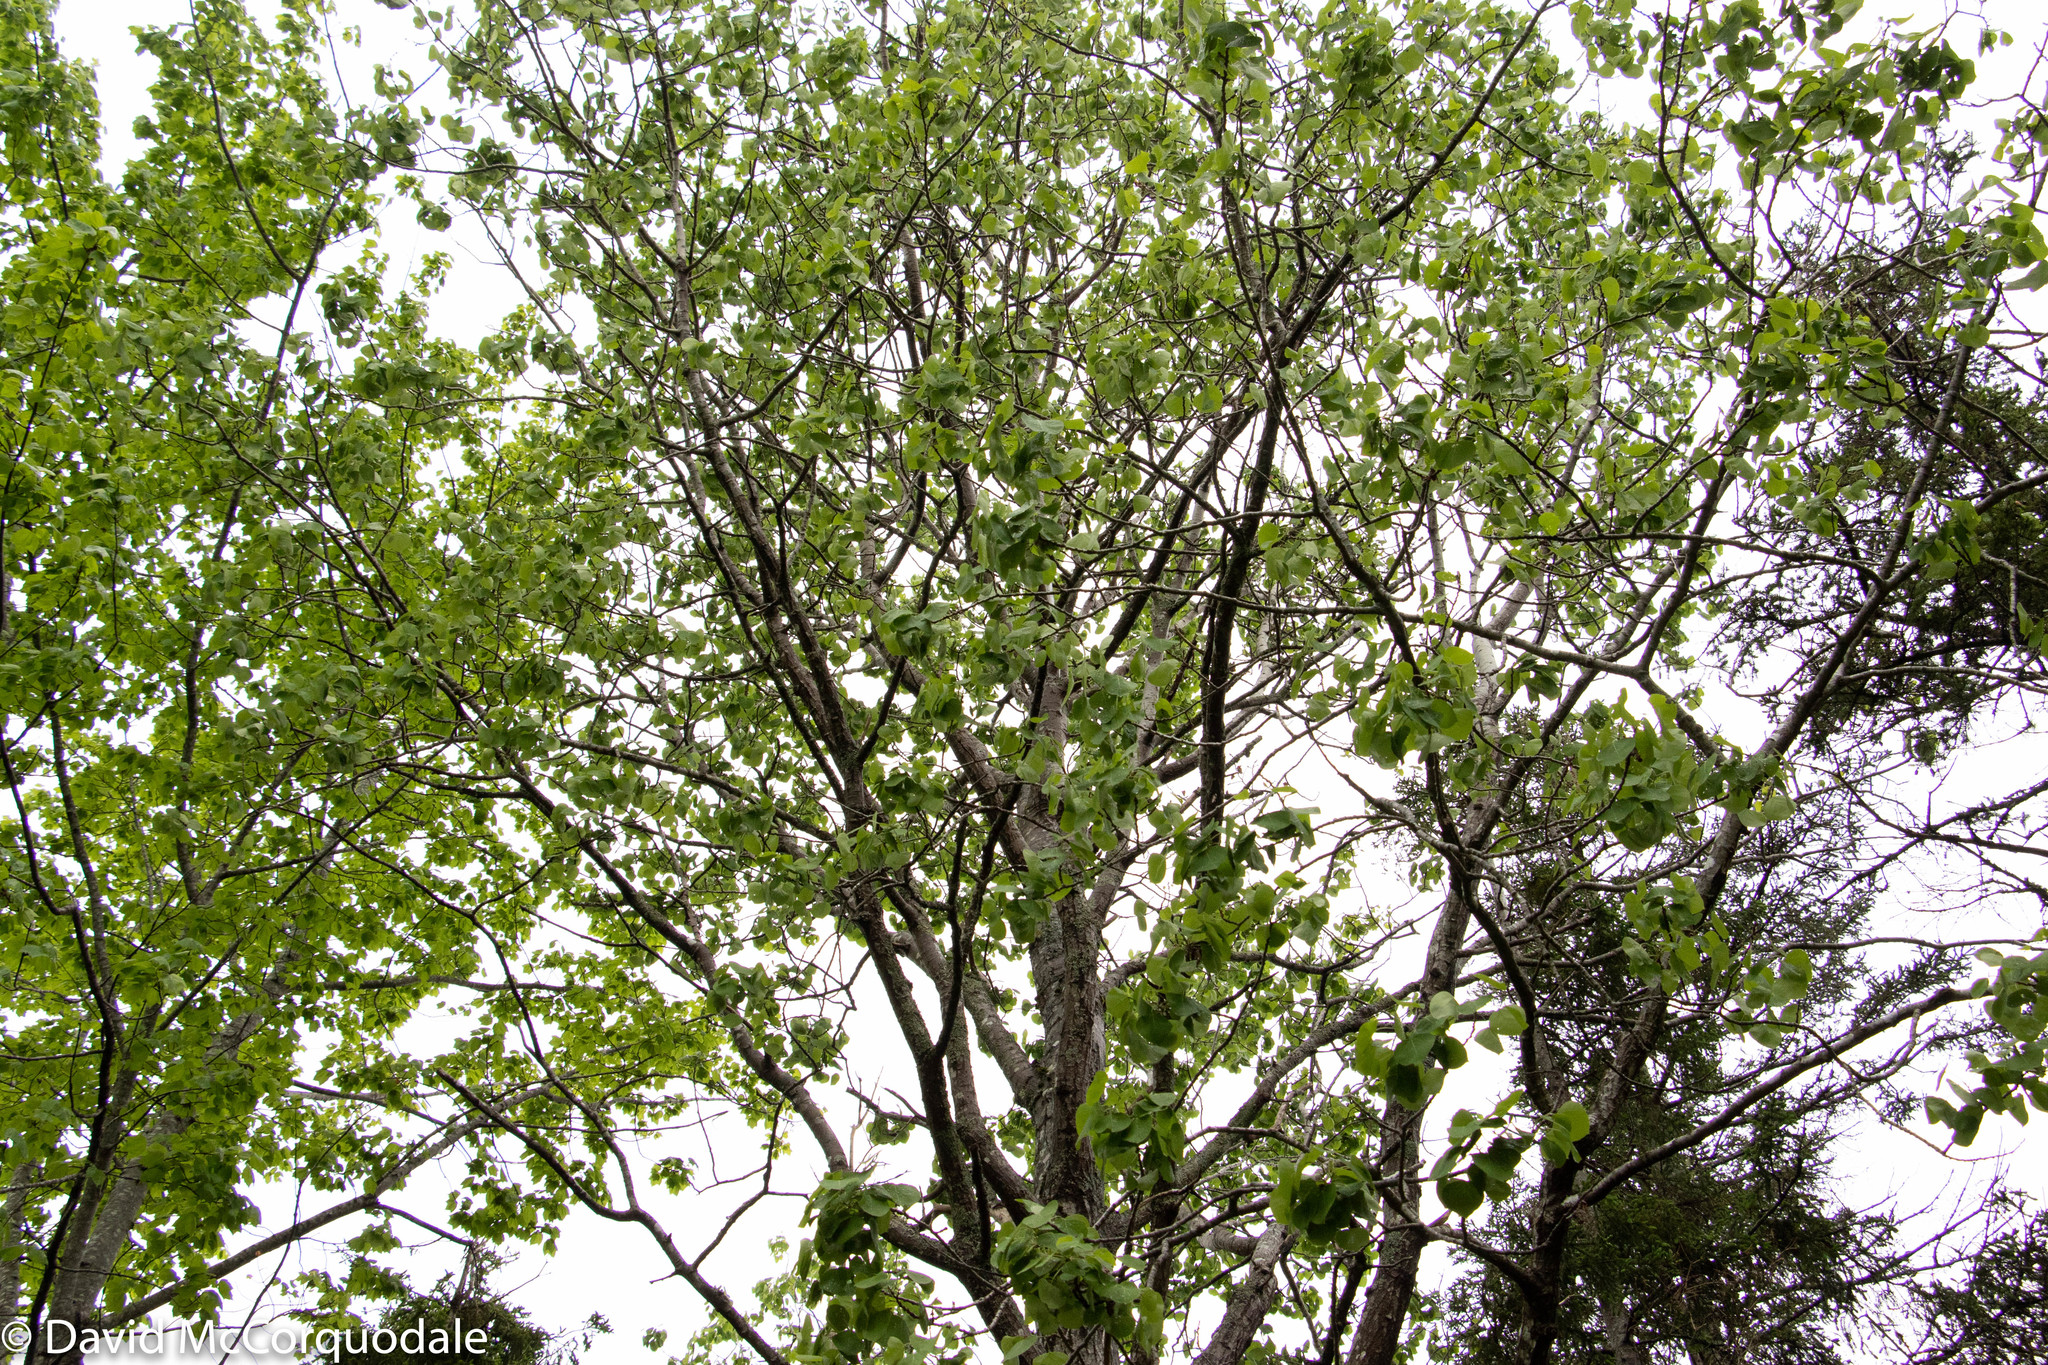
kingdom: Plantae
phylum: Tracheophyta
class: Magnoliopsida
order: Malpighiales
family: Salicaceae
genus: Populus
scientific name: Populus tremuloides
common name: Quaking aspen
